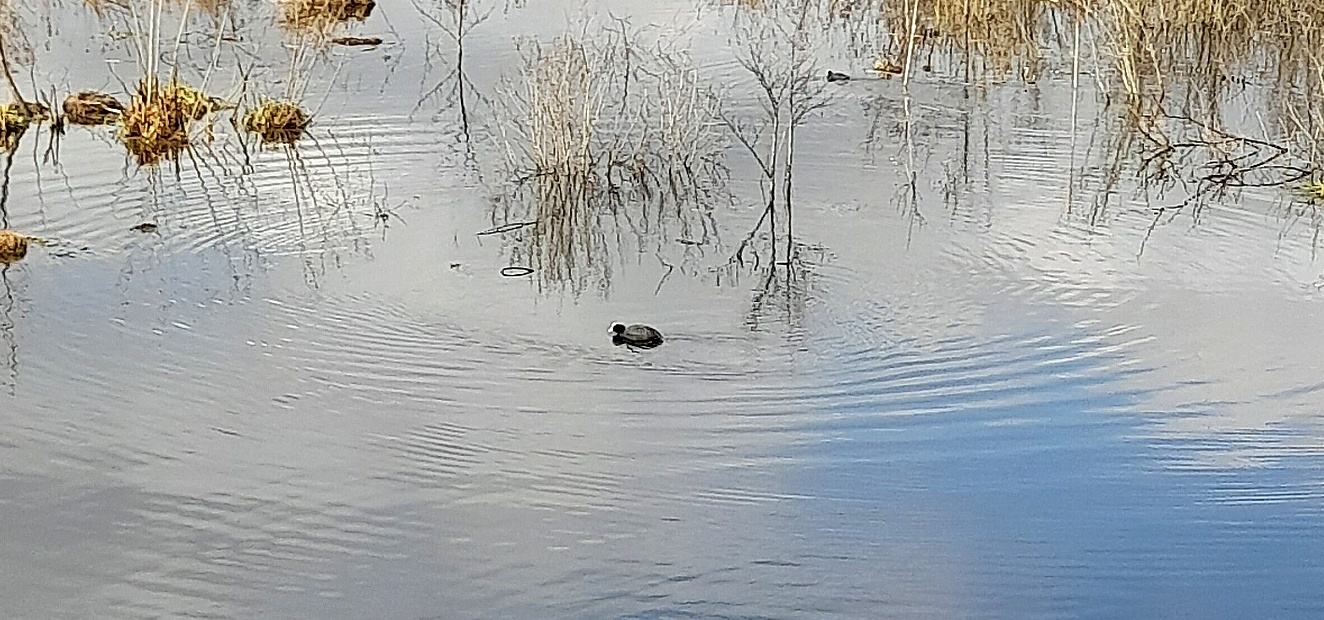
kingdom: Animalia
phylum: Chordata
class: Aves
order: Gruiformes
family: Rallidae
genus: Fulica
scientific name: Fulica atra
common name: Eurasian coot
